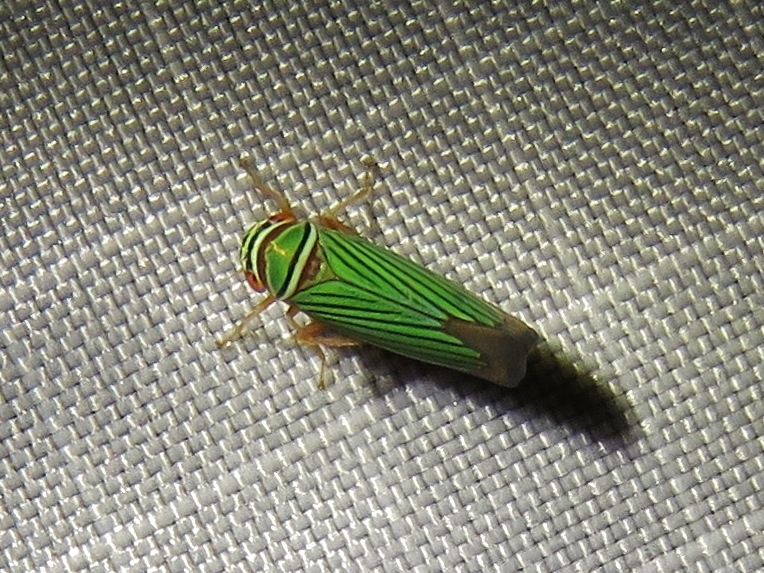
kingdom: Animalia
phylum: Arthropoda
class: Insecta
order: Hemiptera
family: Cicadellidae
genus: Tylozygus
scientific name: Tylozygus fuscolineellus
